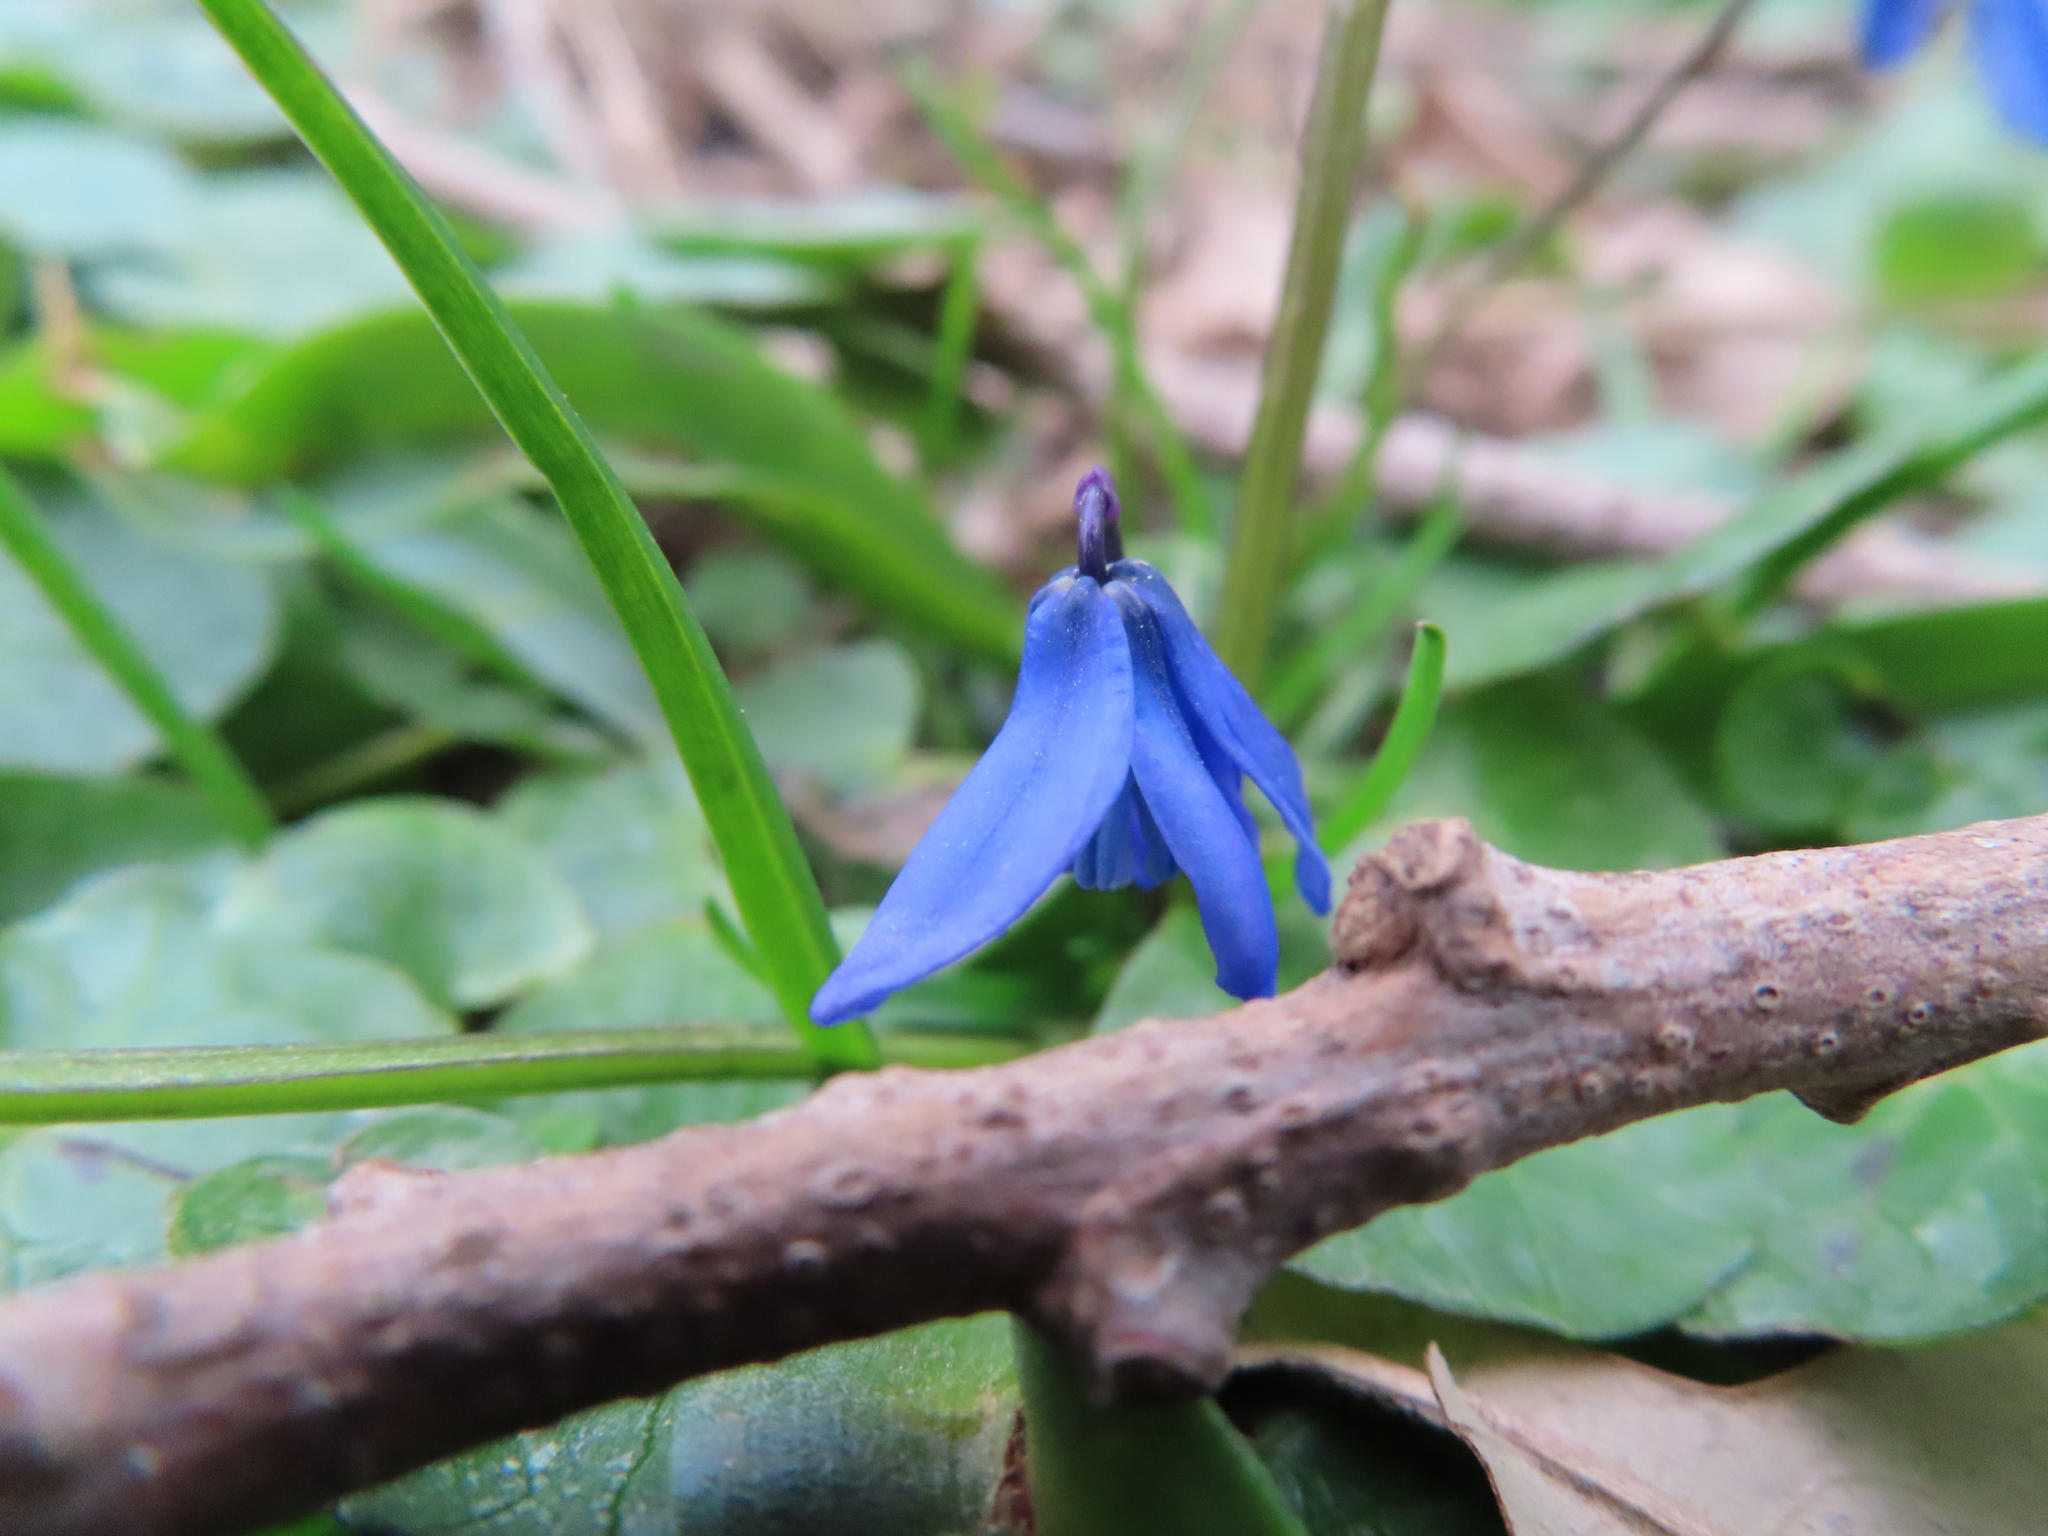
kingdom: Plantae
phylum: Tracheophyta
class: Liliopsida
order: Asparagales
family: Asparagaceae
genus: Scilla
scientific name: Scilla siberica
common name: Siberian squill
